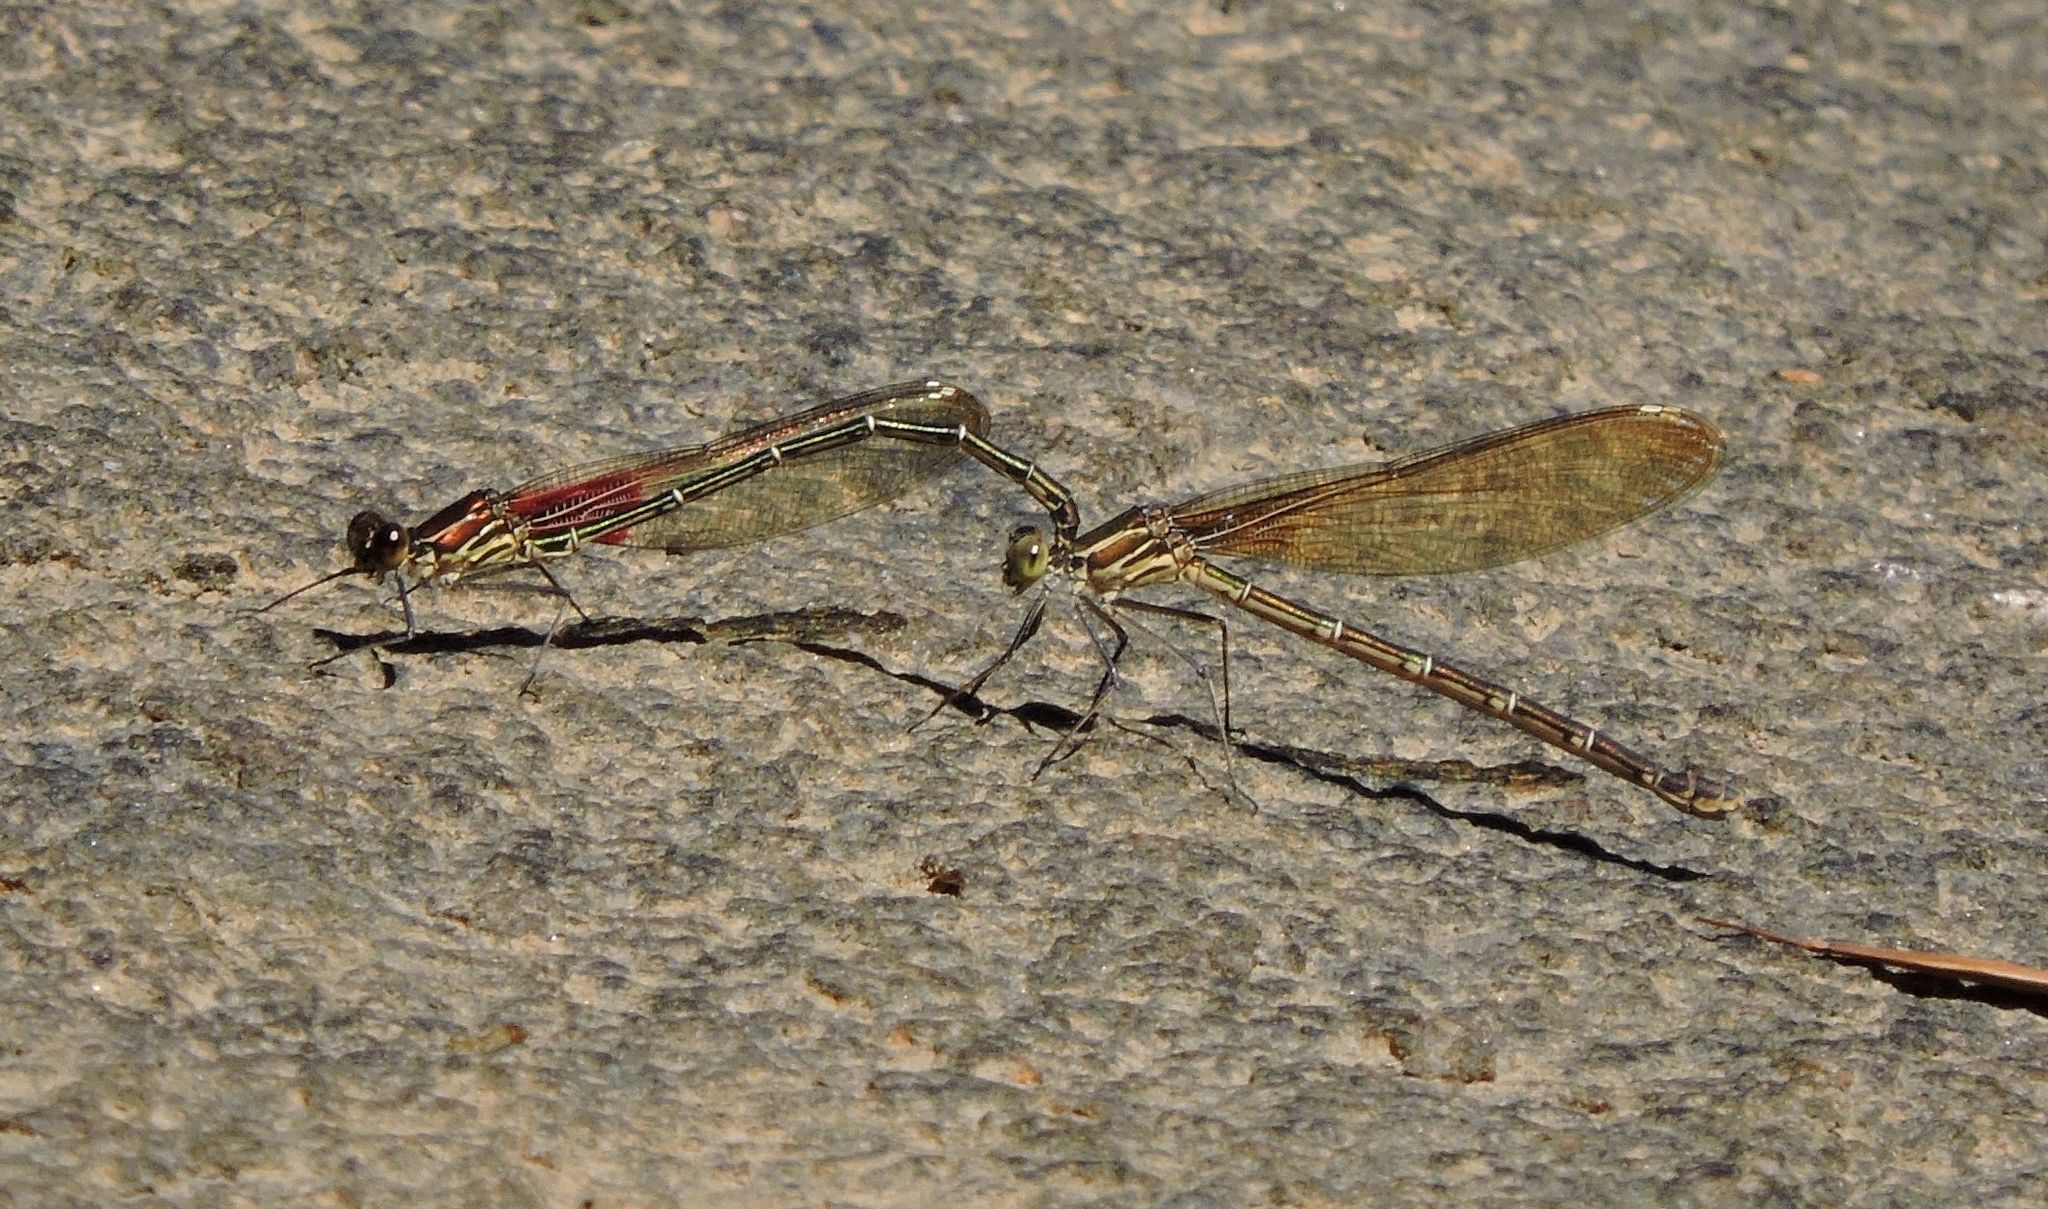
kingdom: Animalia
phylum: Arthropoda
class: Insecta
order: Odonata
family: Calopterygidae
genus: Hetaerina
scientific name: Hetaerina americana
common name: American rubyspot
